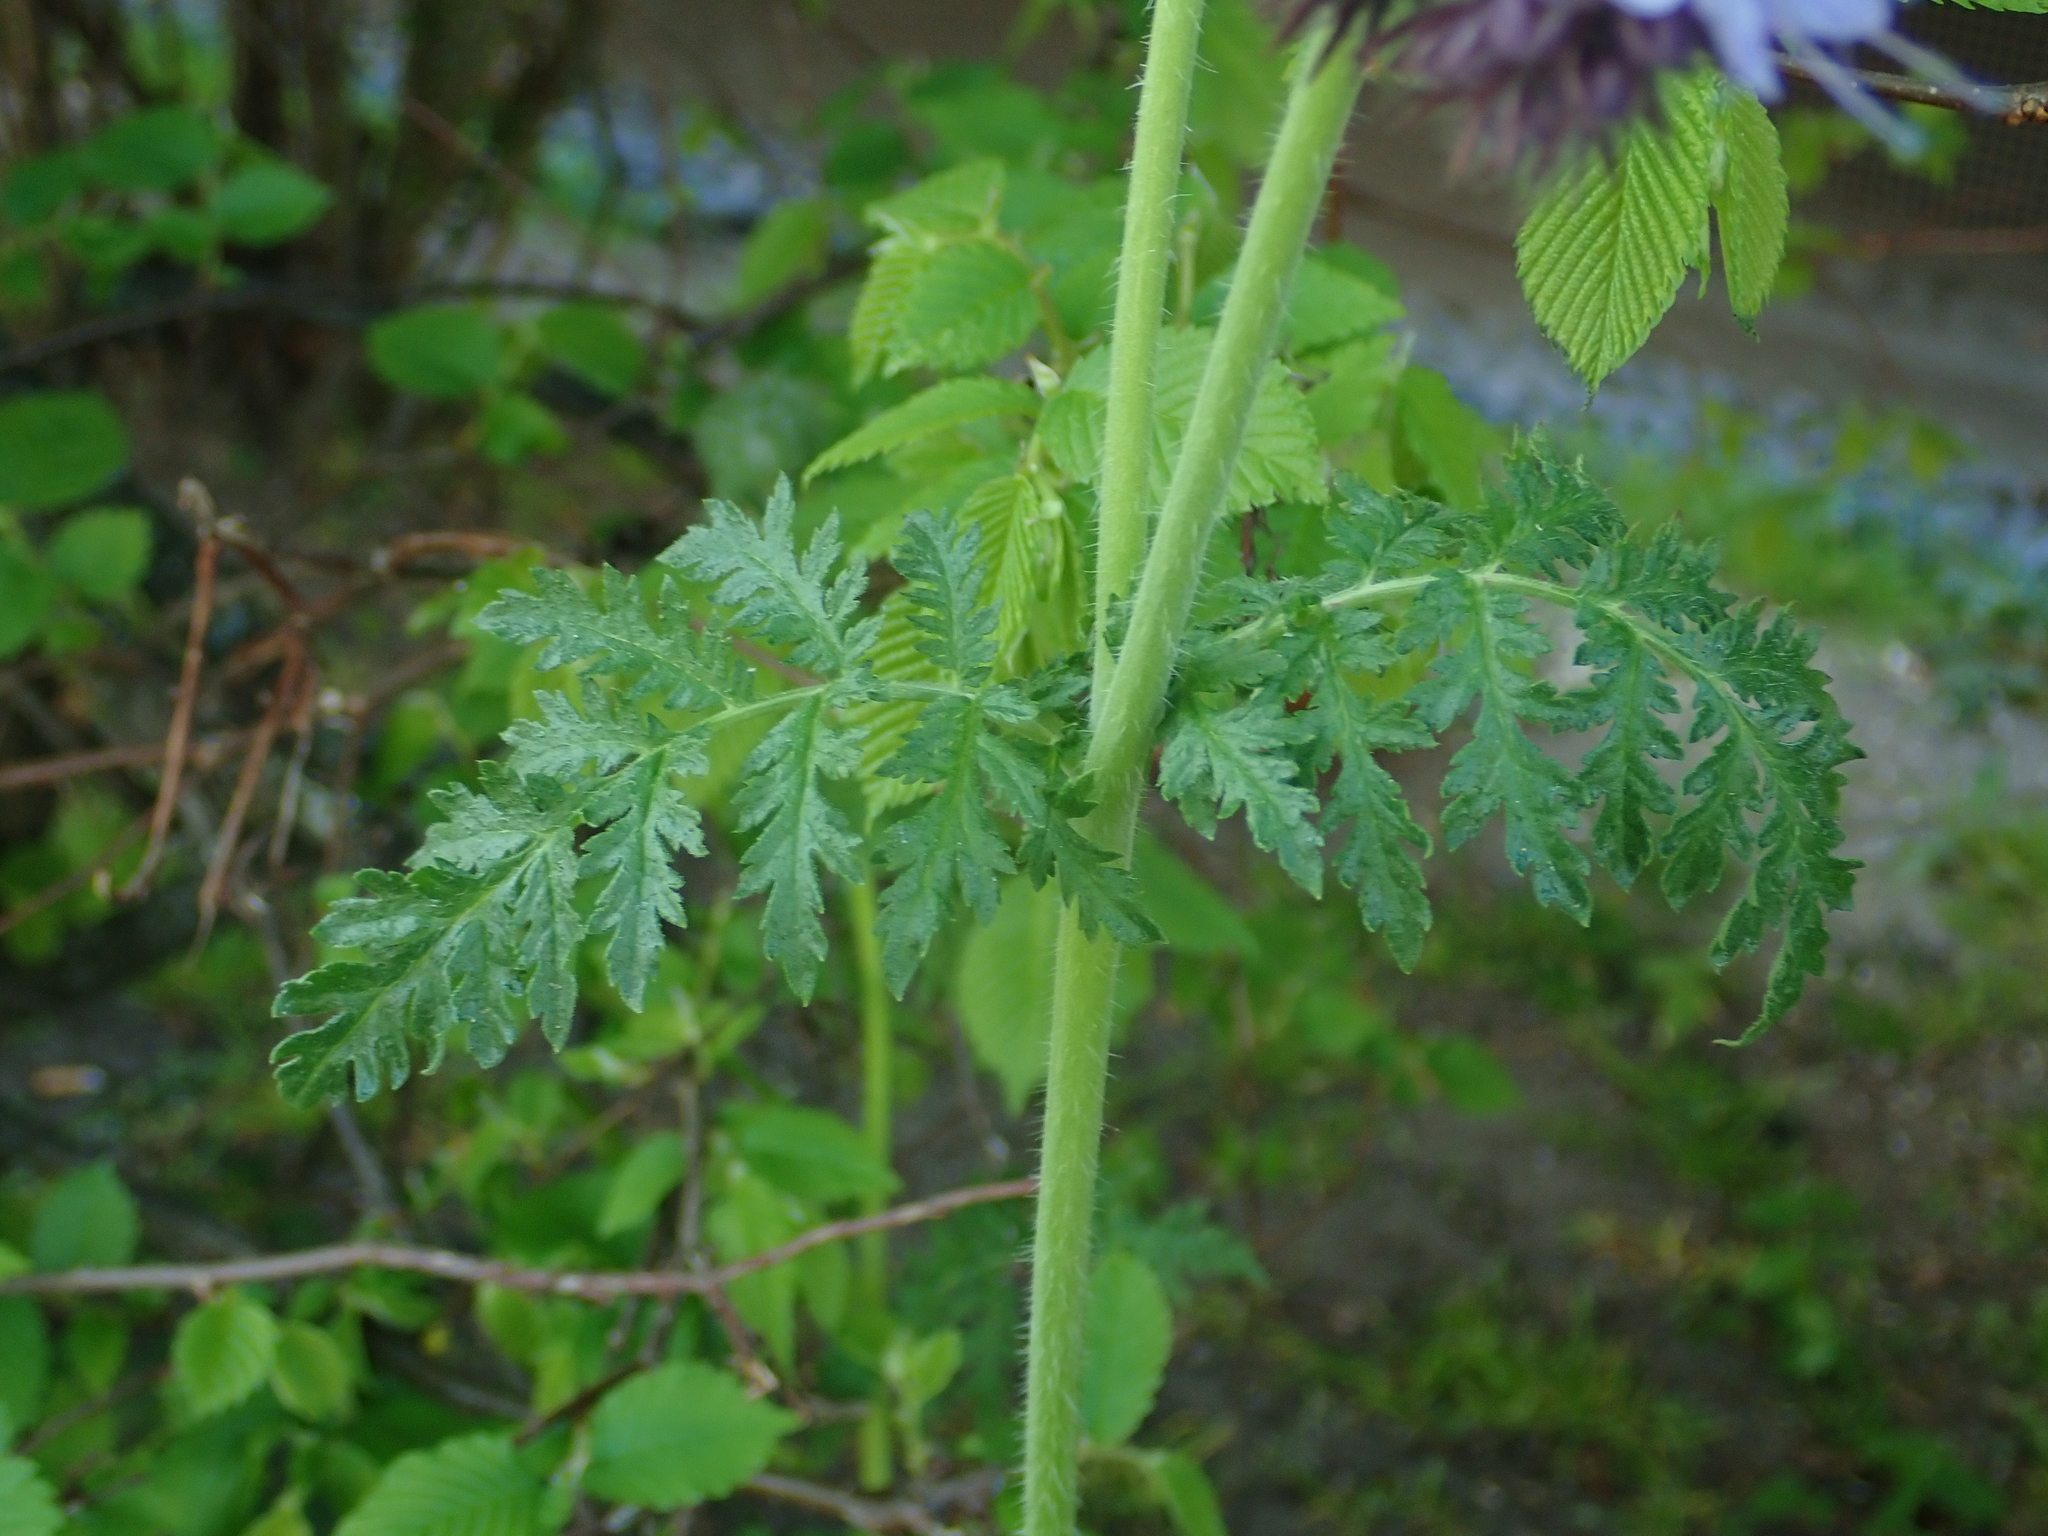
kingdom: Plantae
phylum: Tracheophyta
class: Magnoliopsida
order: Boraginales
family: Hydrophyllaceae
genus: Phacelia
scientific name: Phacelia tanacetifolia
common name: Phacelia
